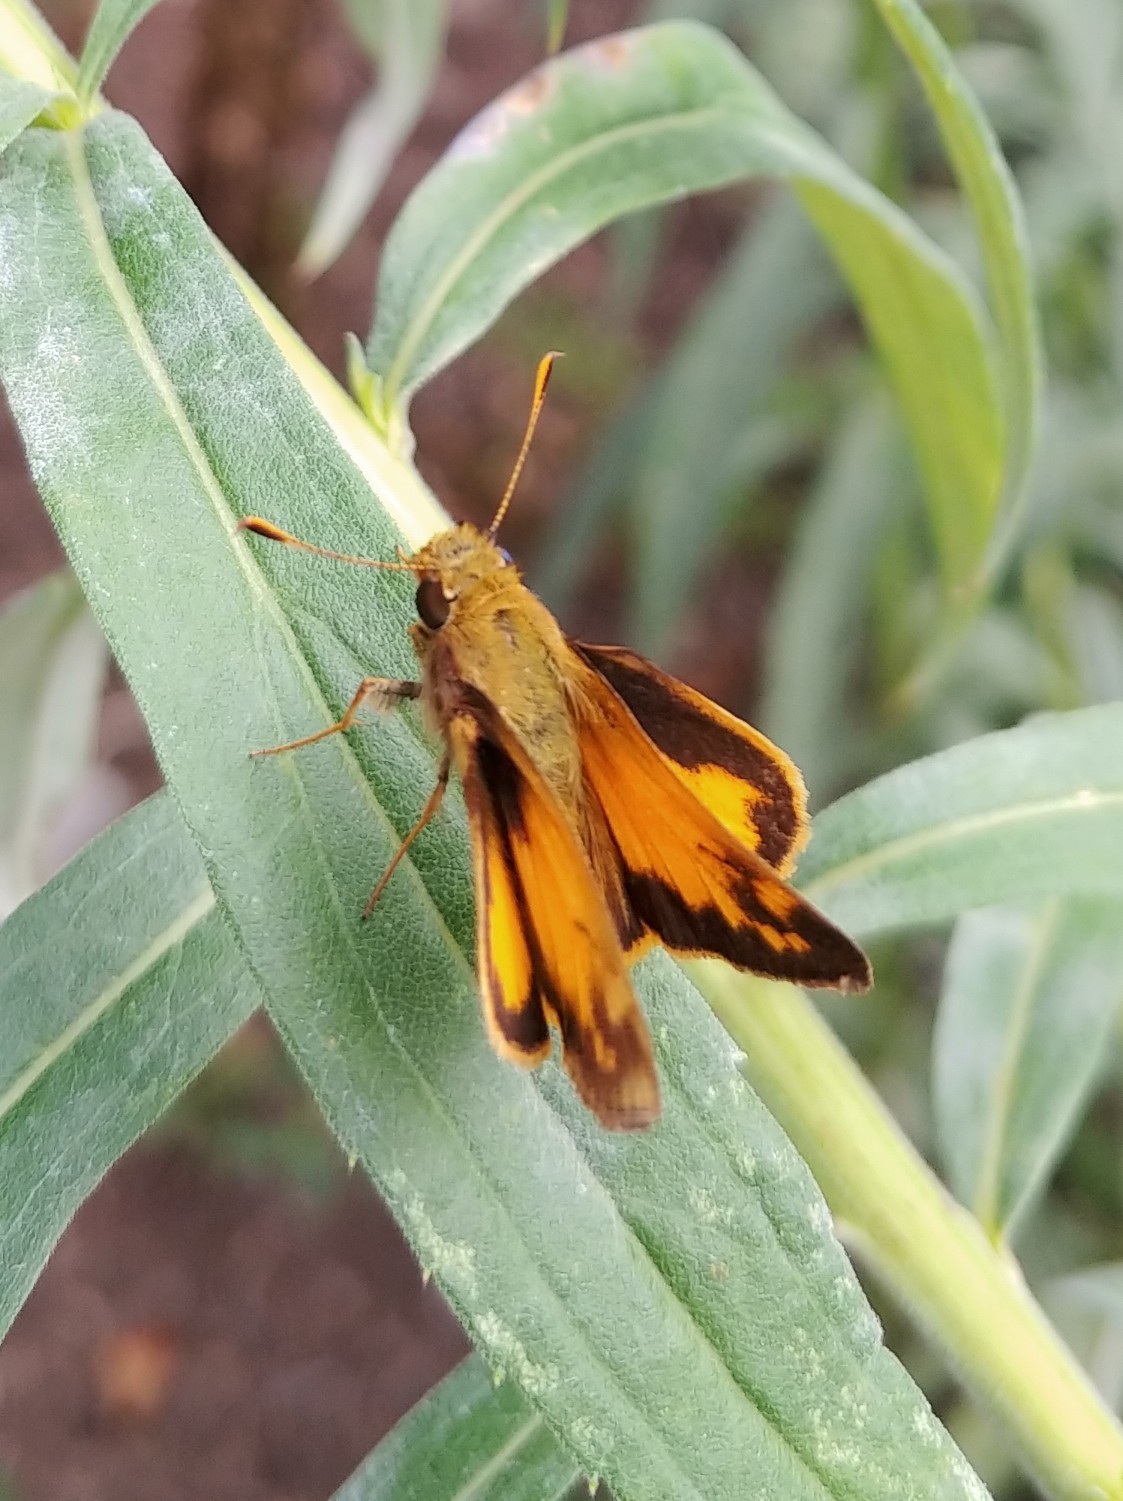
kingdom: Animalia
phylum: Arthropoda
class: Insecta
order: Lepidoptera
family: Hesperiidae
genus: Lon
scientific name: Lon zabulon
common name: Zabulon skipper
